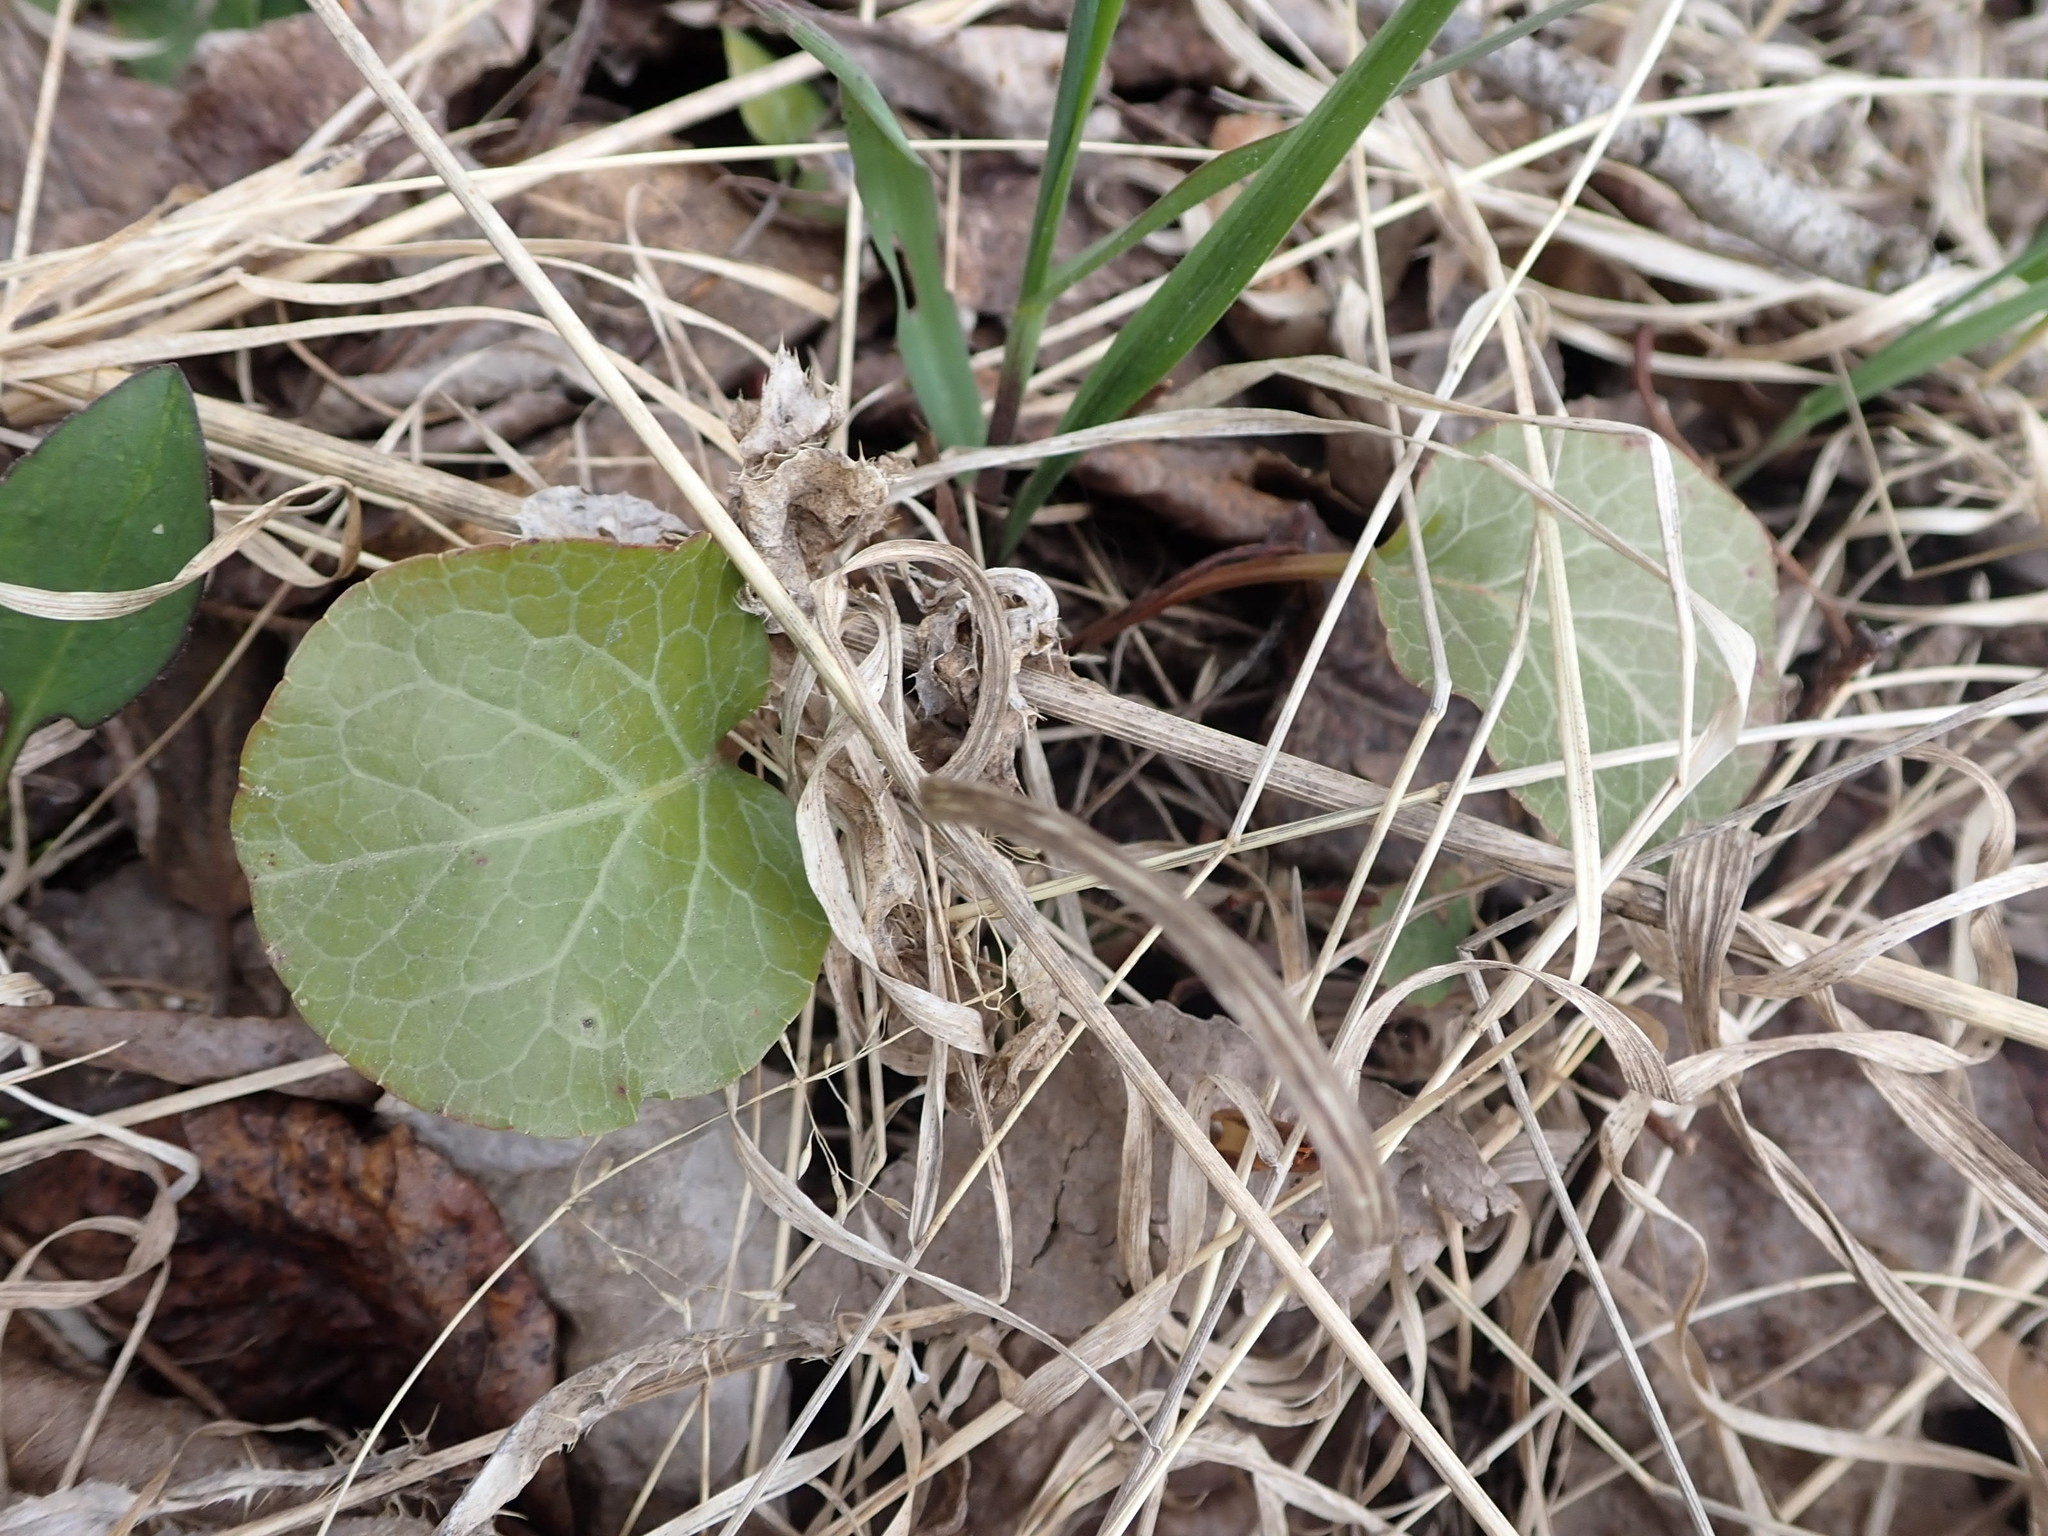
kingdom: Plantae
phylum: Tracheophyta
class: Magnoliopsida
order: Ericales
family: Ericaceae
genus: Pyrola
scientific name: Pyrola asarifolia
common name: Bog wintergreen
